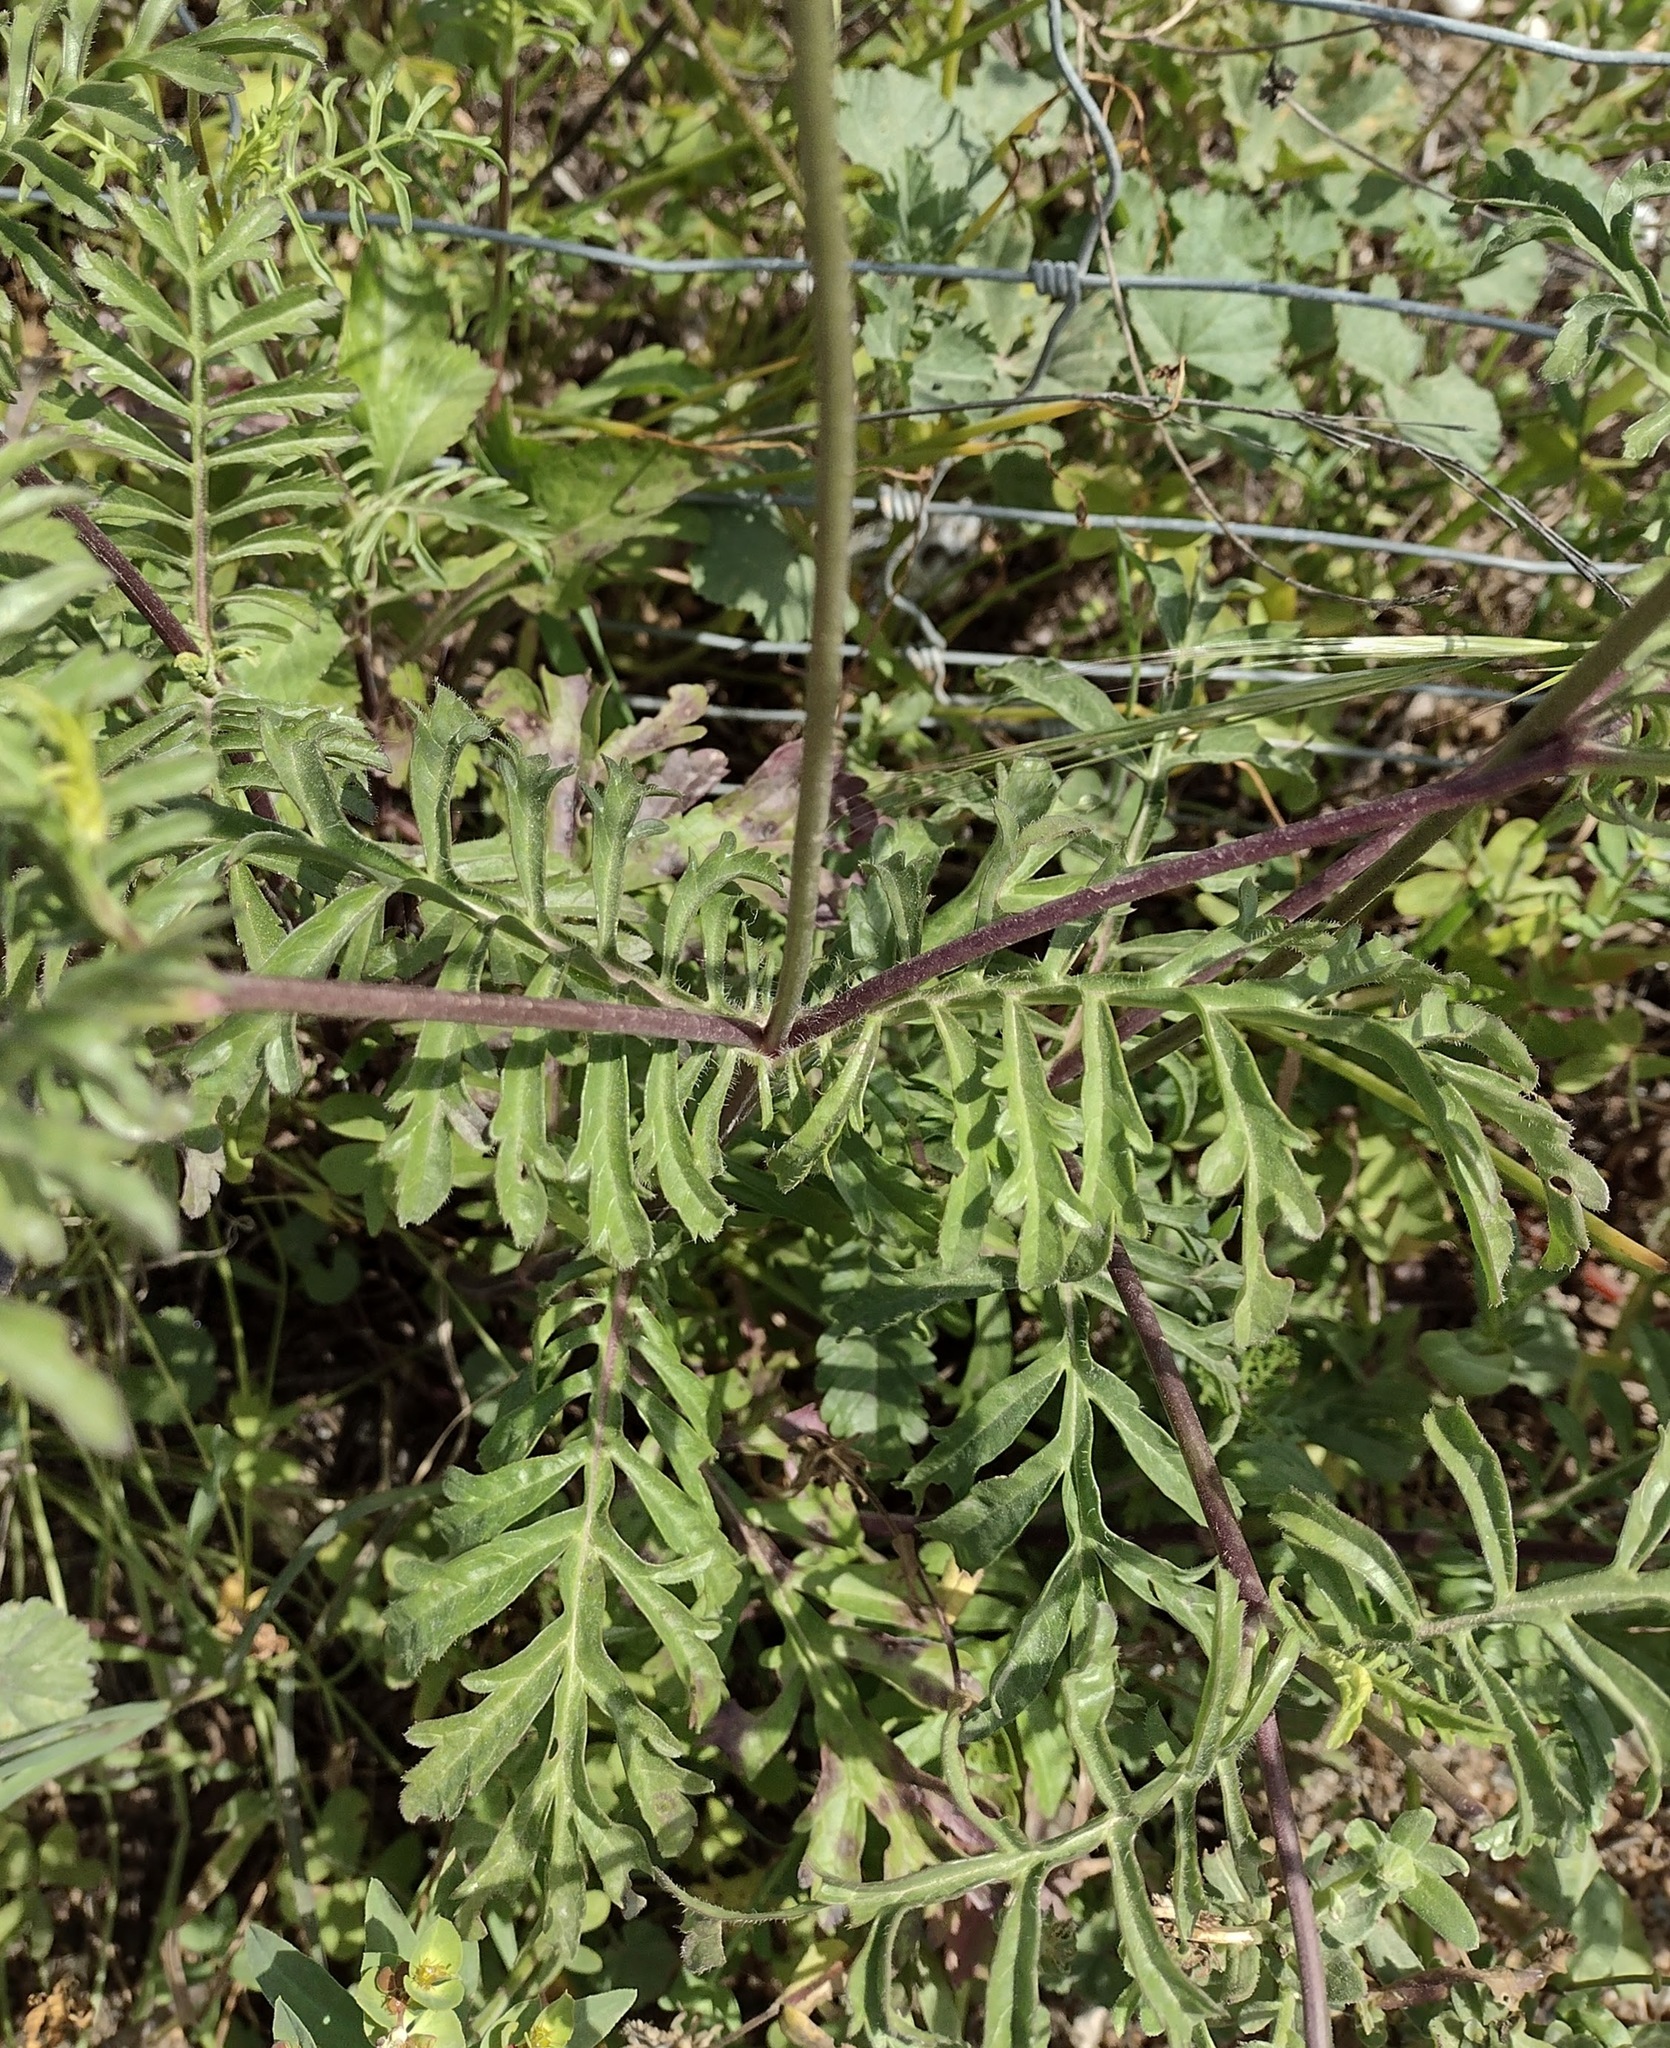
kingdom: Plantae
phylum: Tracheophyta
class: Magnoliopsida
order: Dipsacales
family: Caprifoliaceae
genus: Sixalix
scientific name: Sixalix atropurpurea
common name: Sweet scabious
